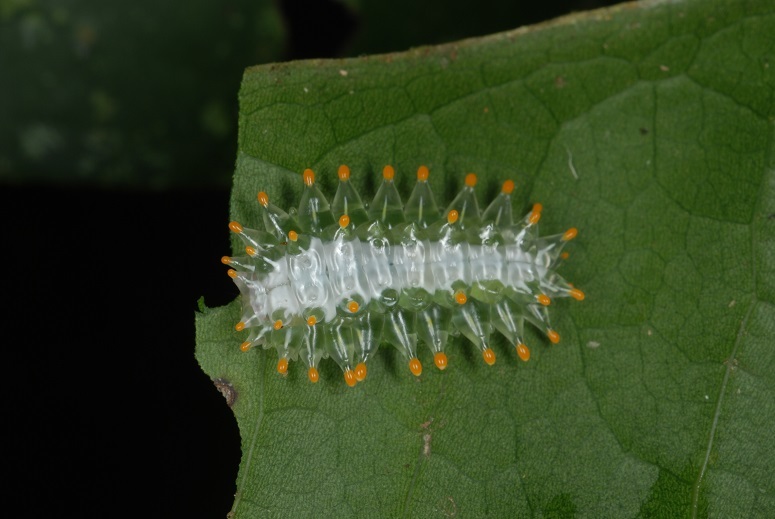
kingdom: Animalia
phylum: Arthropoda
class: Insecta
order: Lepidoptera
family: Dalceridae
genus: Paracraga
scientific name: Paracraga argentea
